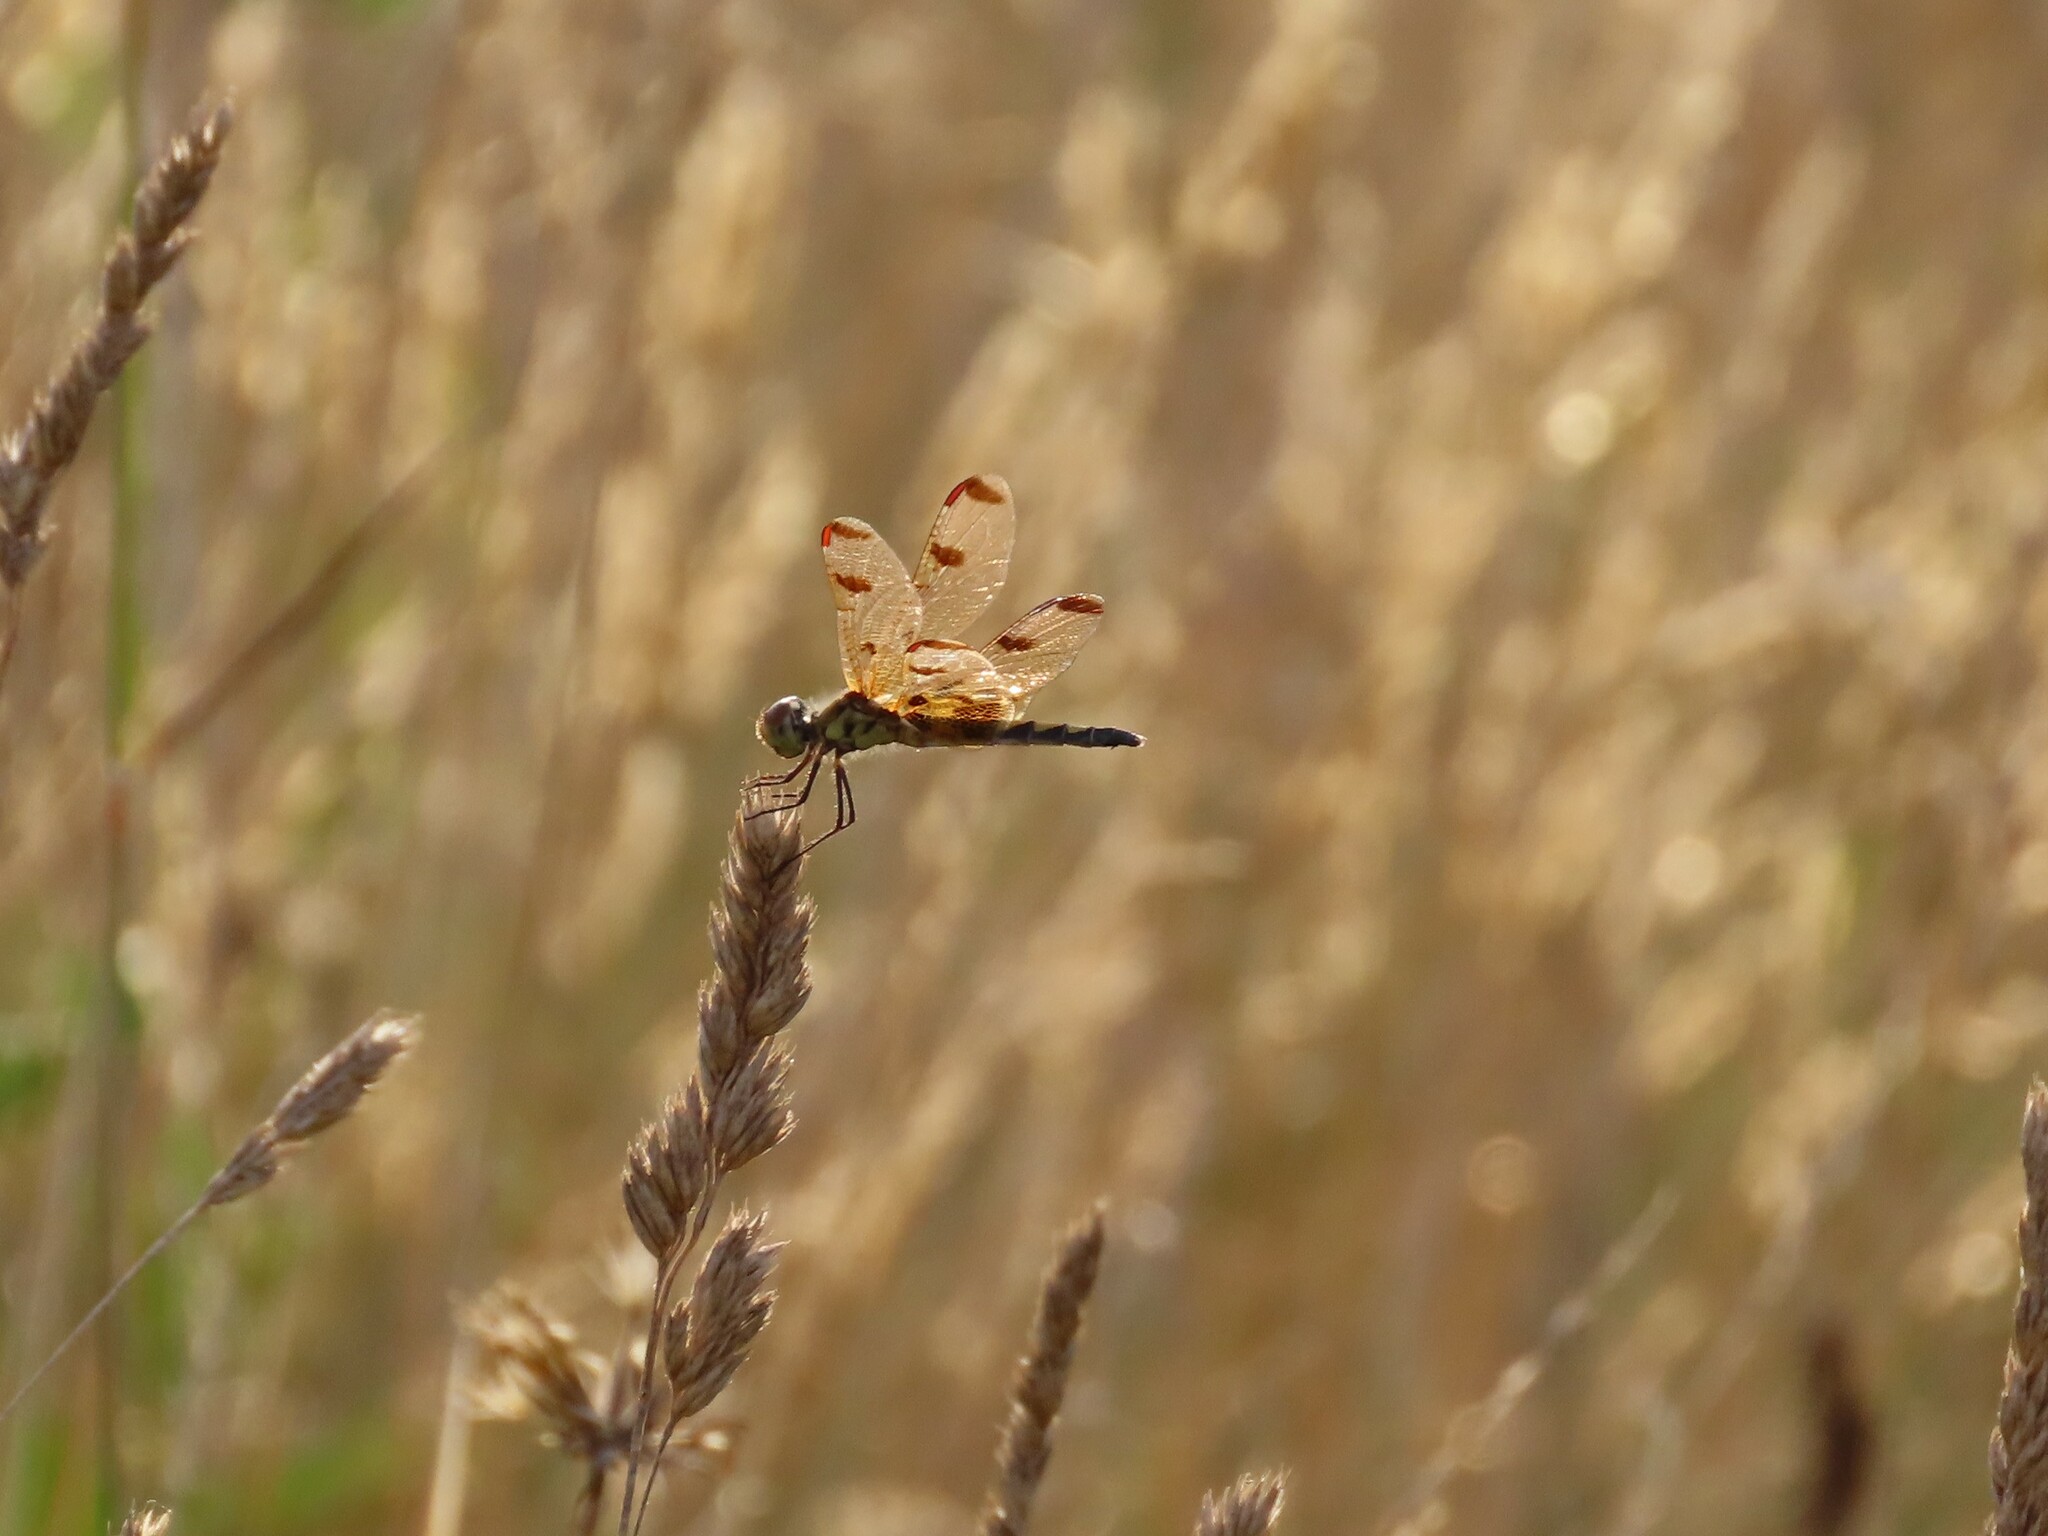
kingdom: Animalia
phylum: Arthropoda
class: Insecta
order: Odonata
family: Libellulidae
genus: Celithemis
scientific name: Celithemis elisa
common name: Calico pennant
